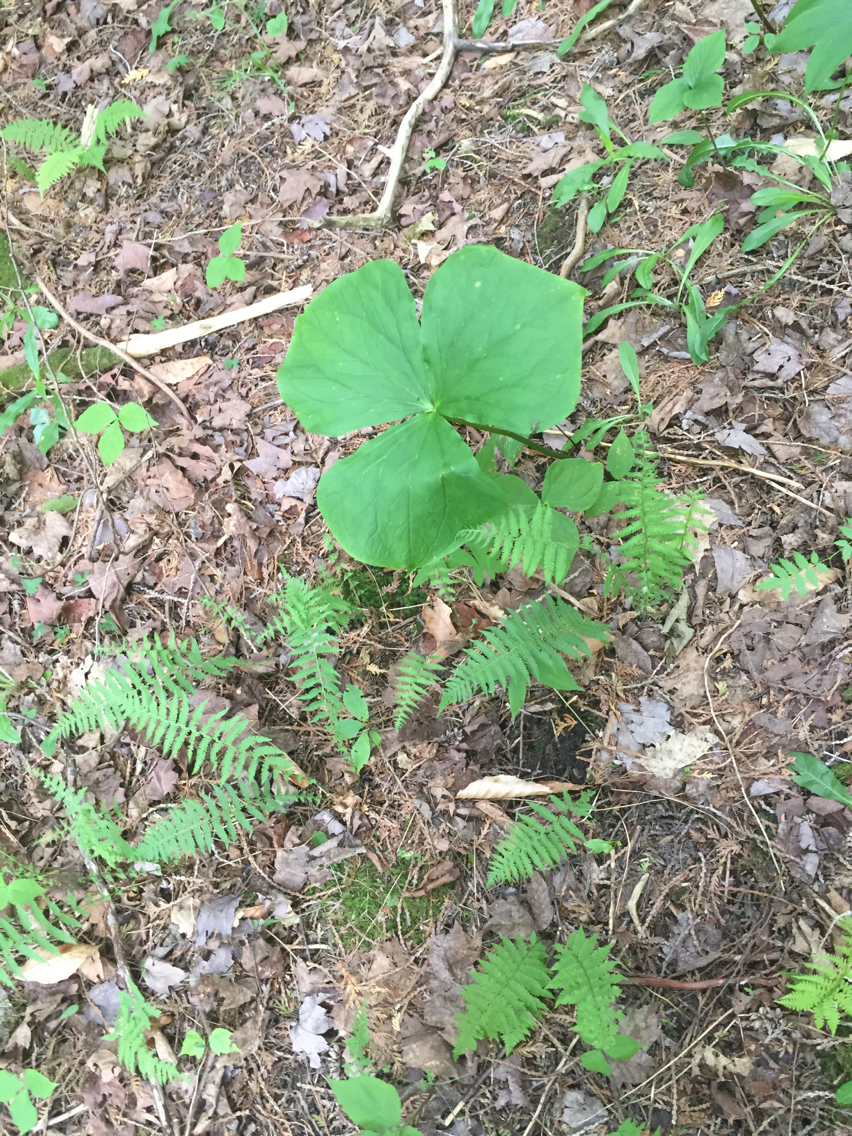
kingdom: Plantae
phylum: Tracheophyta
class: Polypodiopsida
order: Polypodiales
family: Thelypteridaceae
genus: Amauropelta
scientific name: Amauropelta noveboracensis
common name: New york fern
